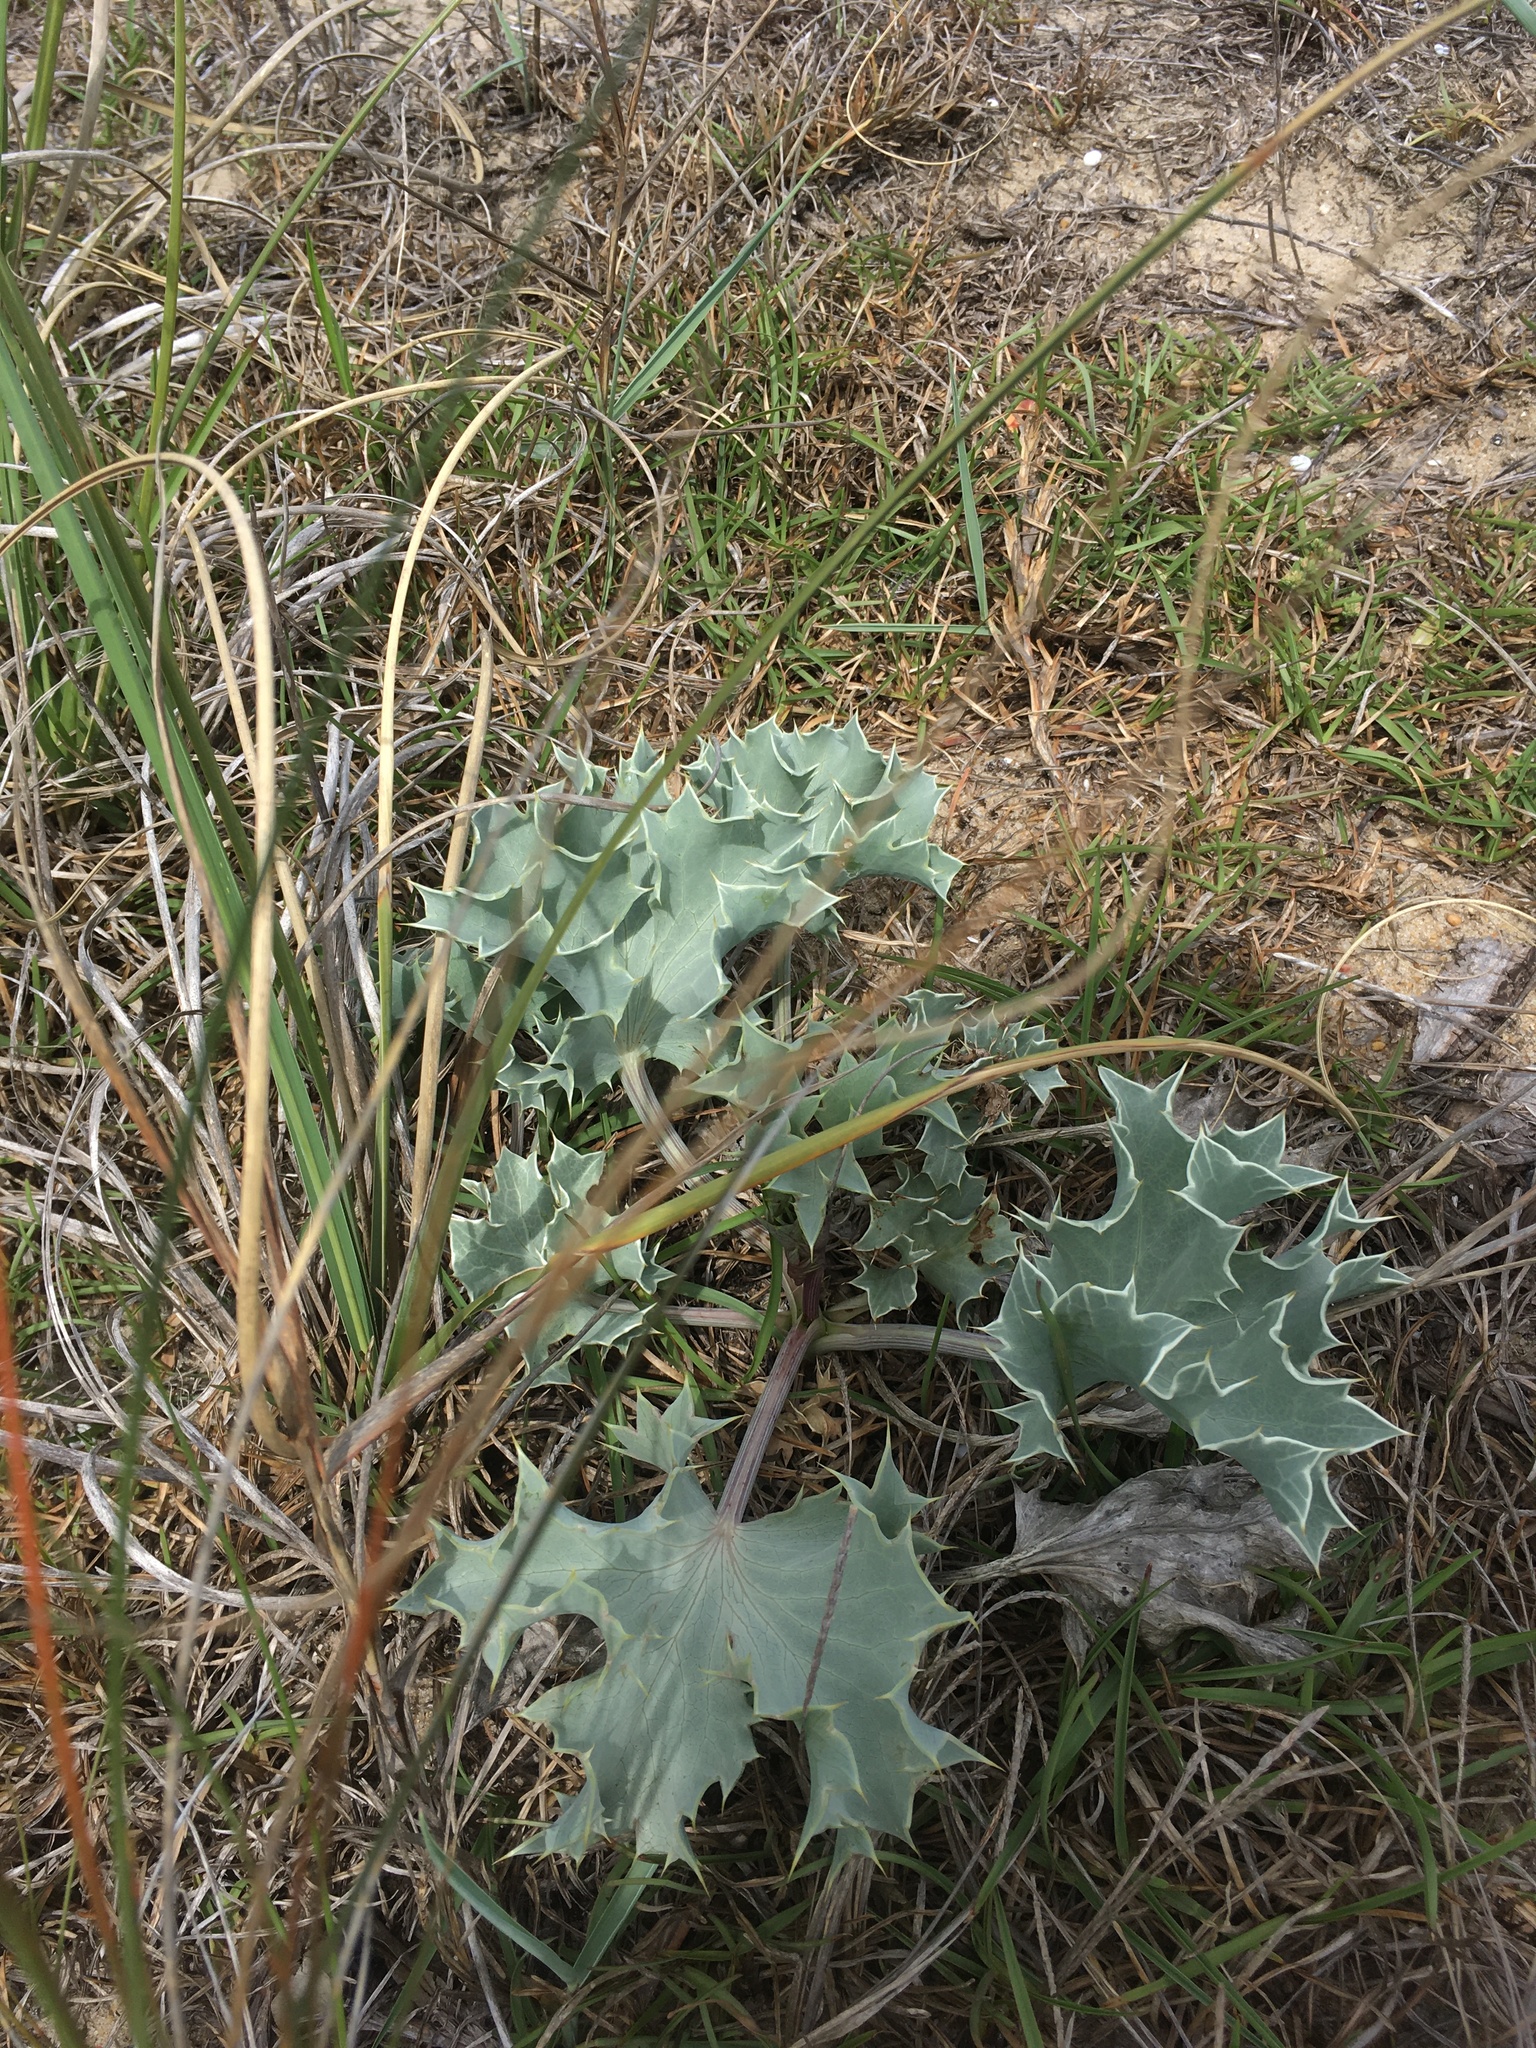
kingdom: Plantae
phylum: Tracheophyta
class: Magnoliopsida
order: Apiales
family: Apiaceae
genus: Eryngium
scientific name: Eryngium maritimum
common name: Sea-holly
